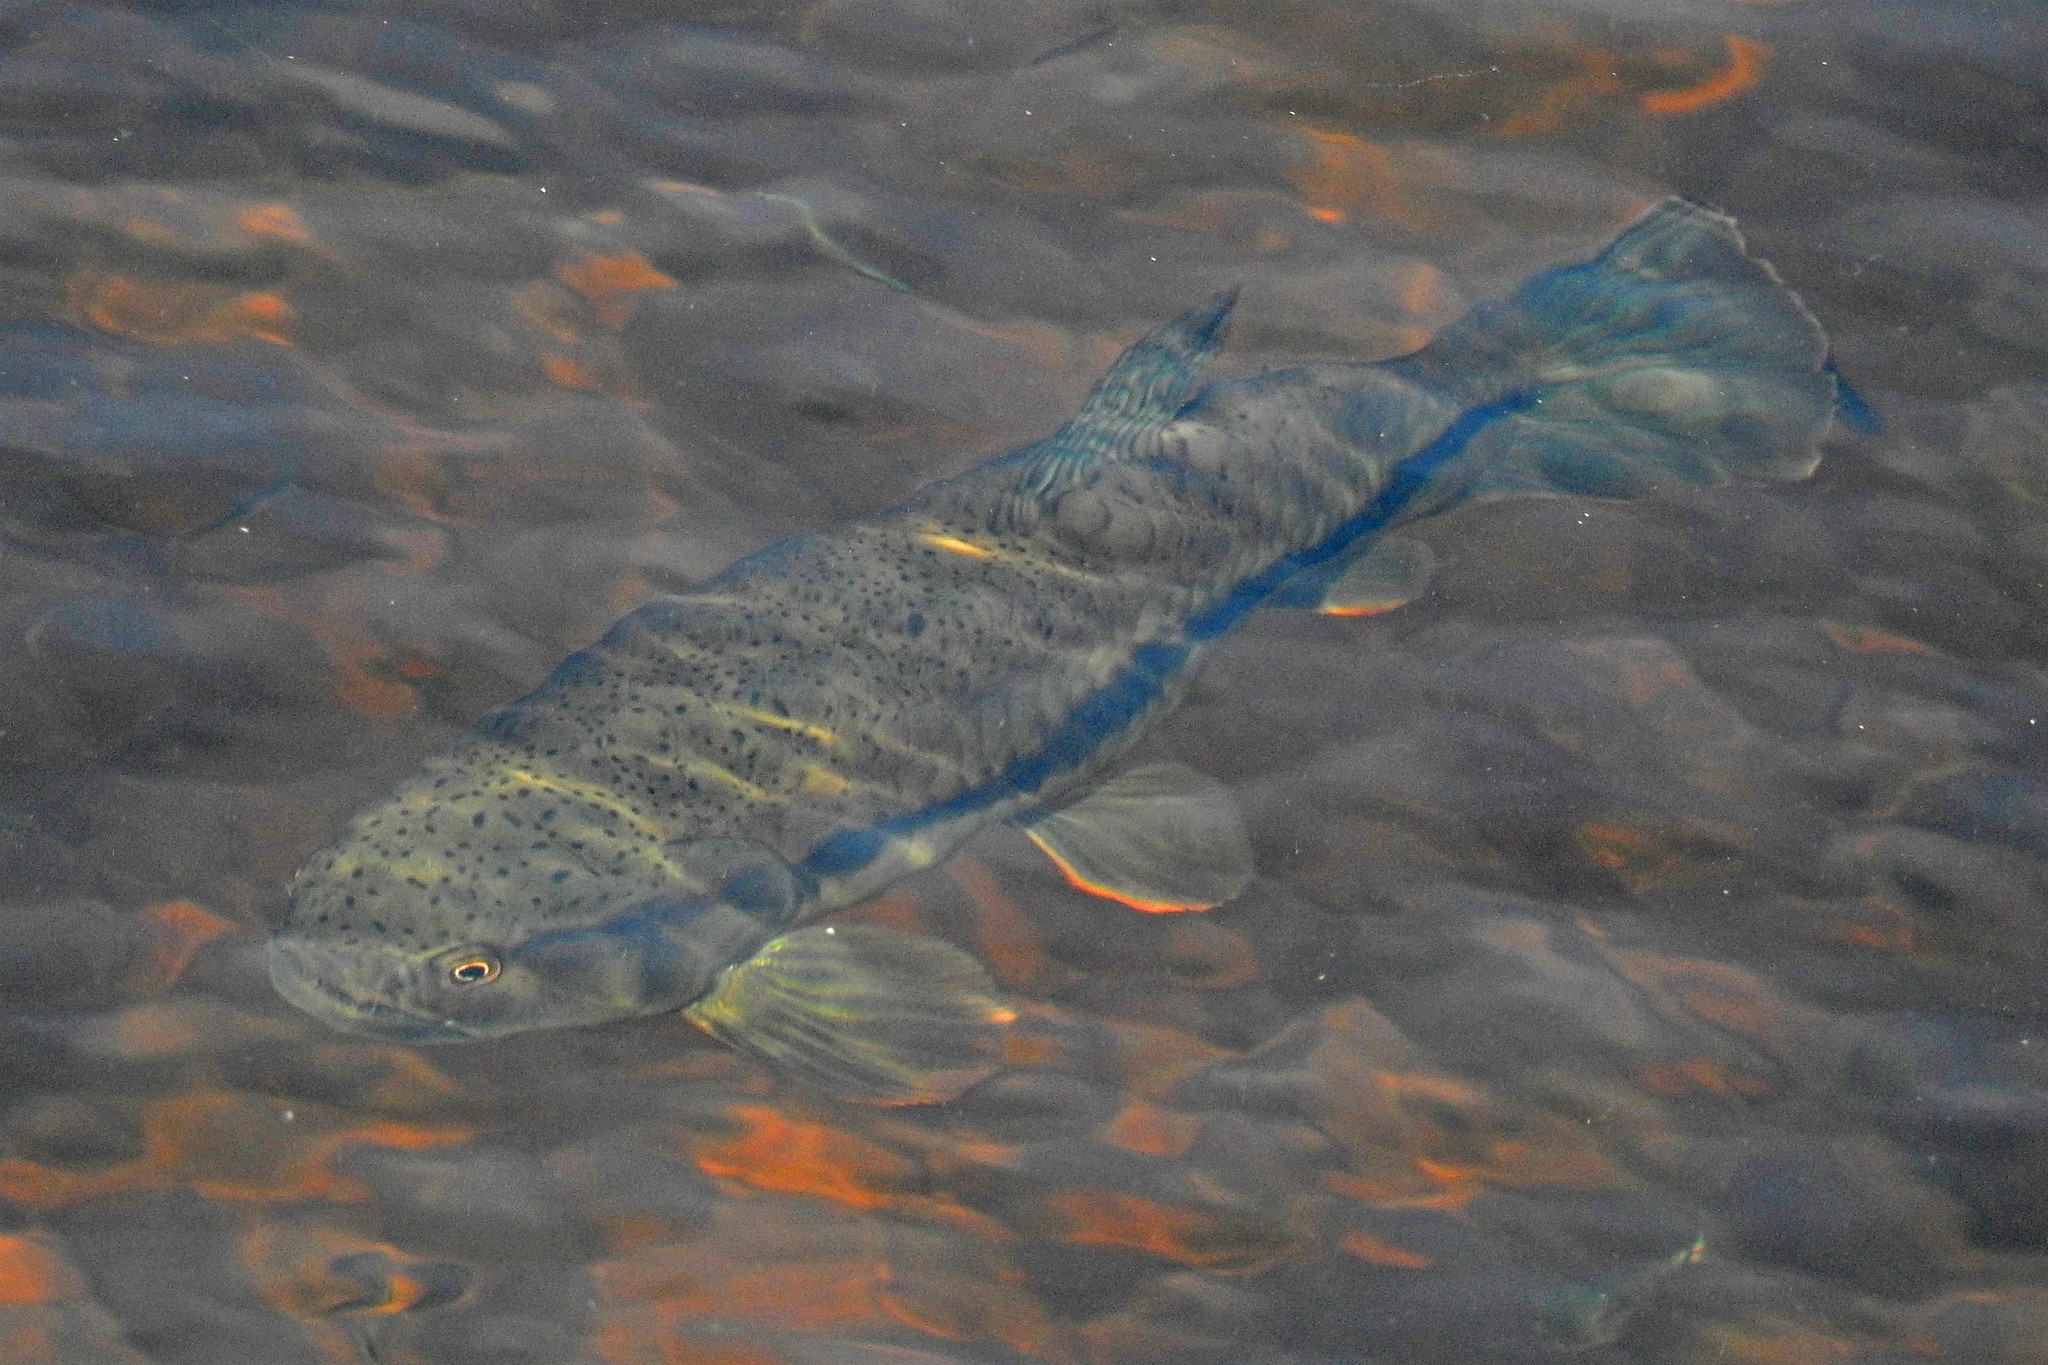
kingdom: Animalia
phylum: Chordata
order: Characiformes
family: Erythrinidae
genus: Hoplerythrinus
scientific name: Hoplerythrinus unitaeniatus
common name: Aimara
